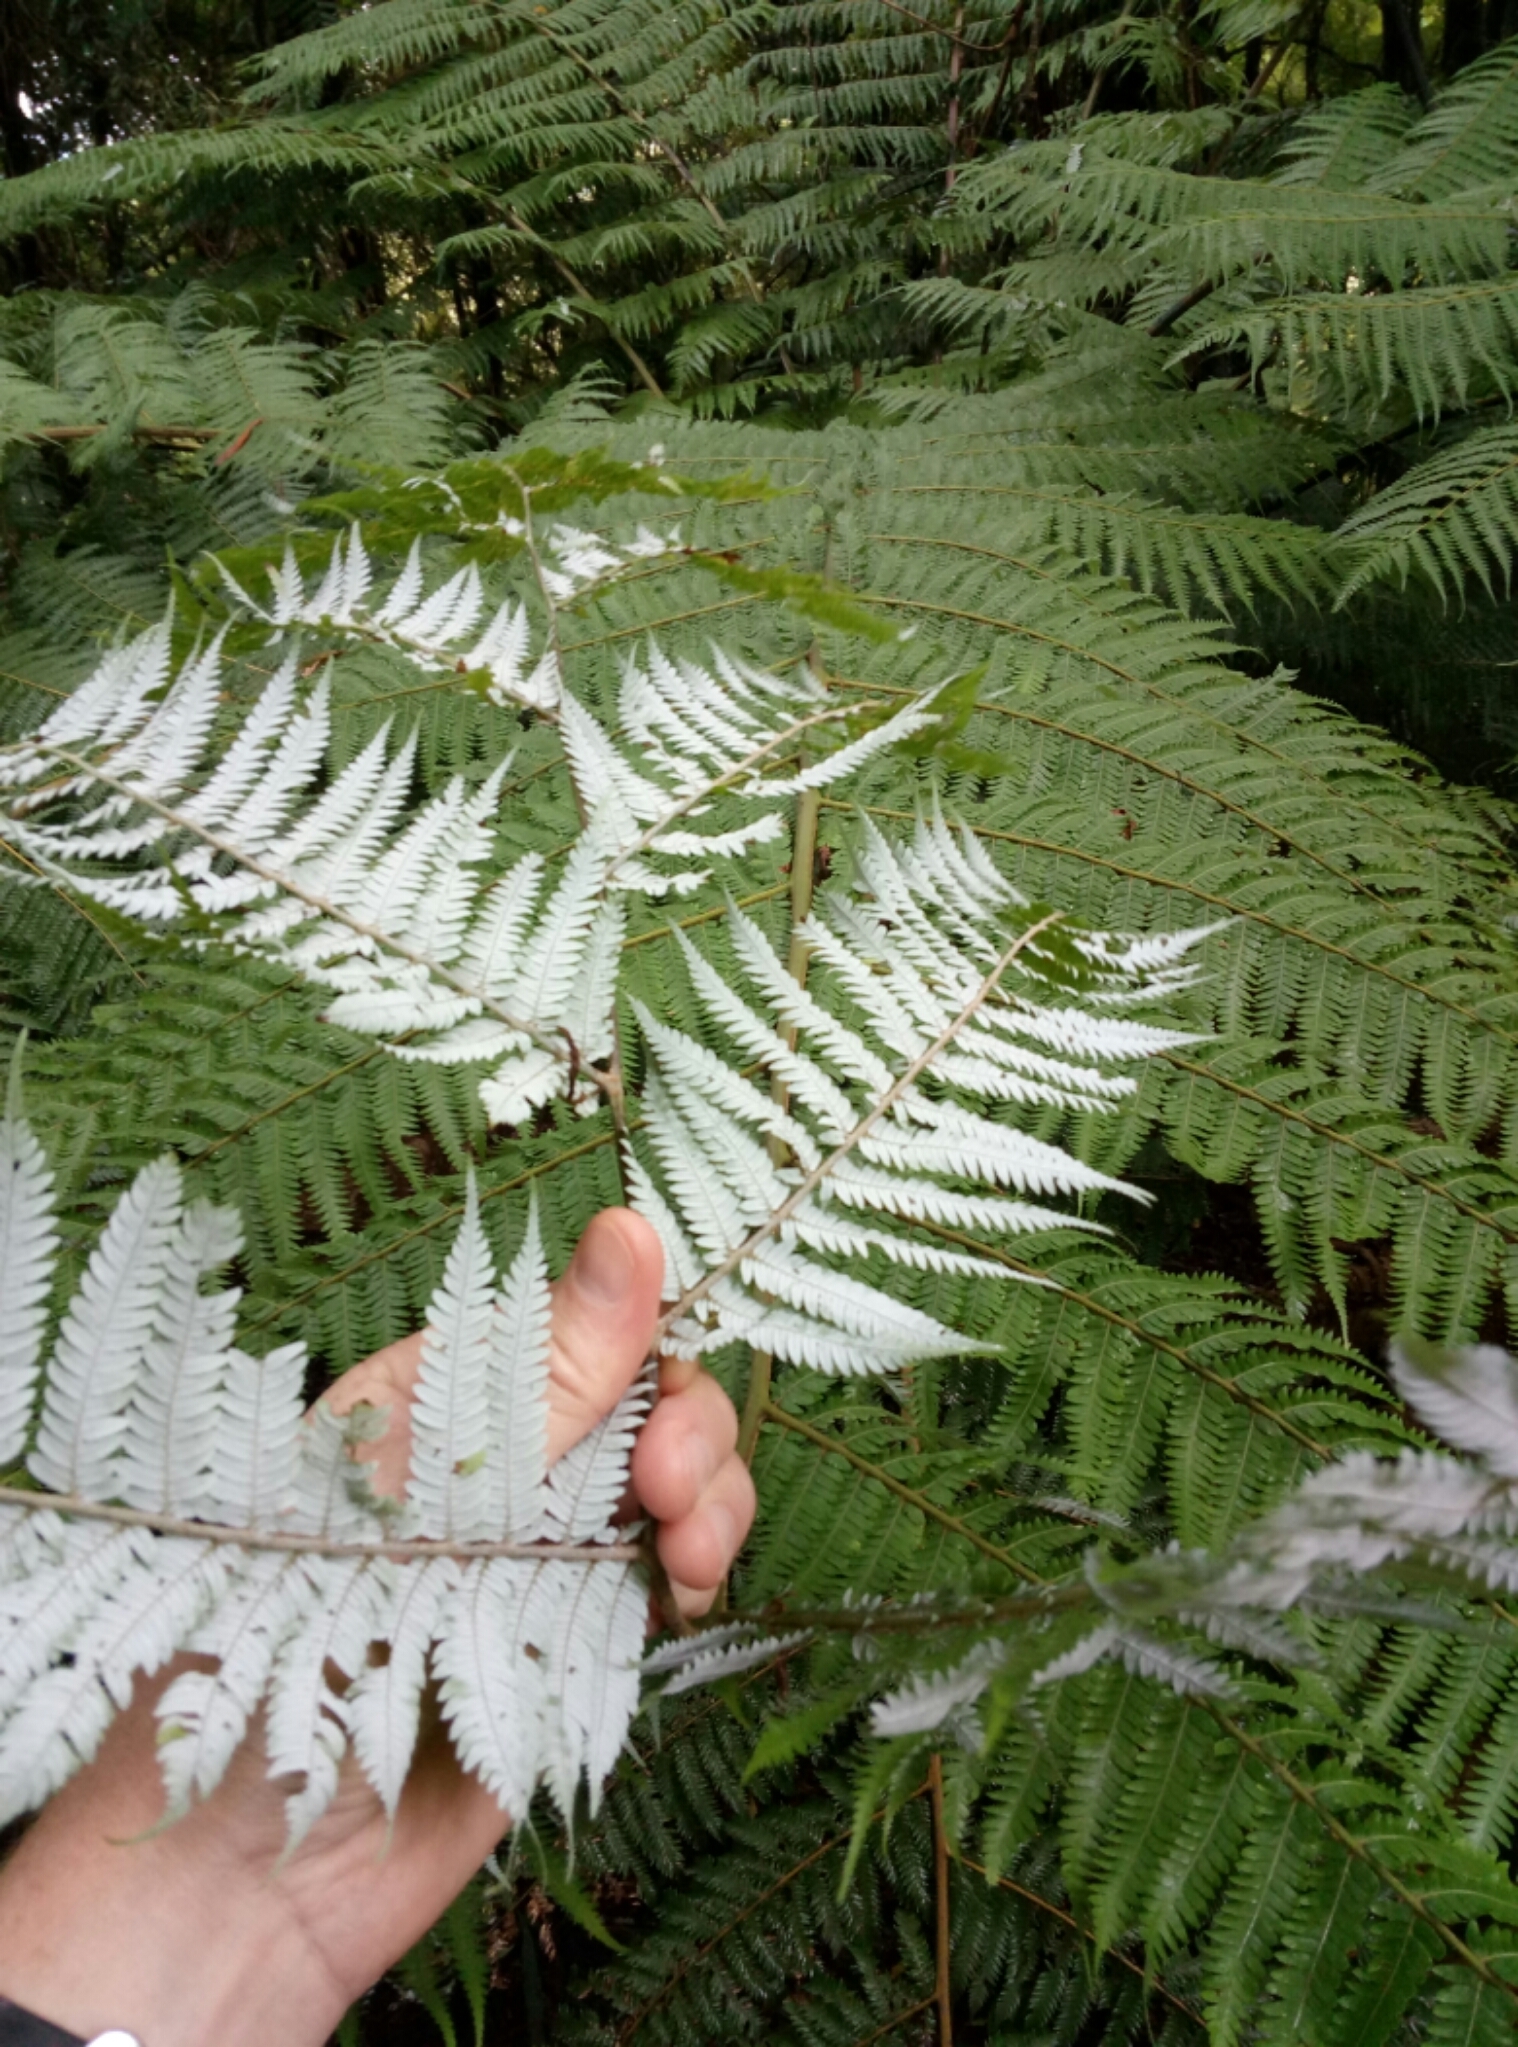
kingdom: Plantae
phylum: Tracheophyta
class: Polypodiopsida
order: Cyatheales
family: Cyatheaceae
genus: Alsophila
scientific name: Alsophila dealbata
